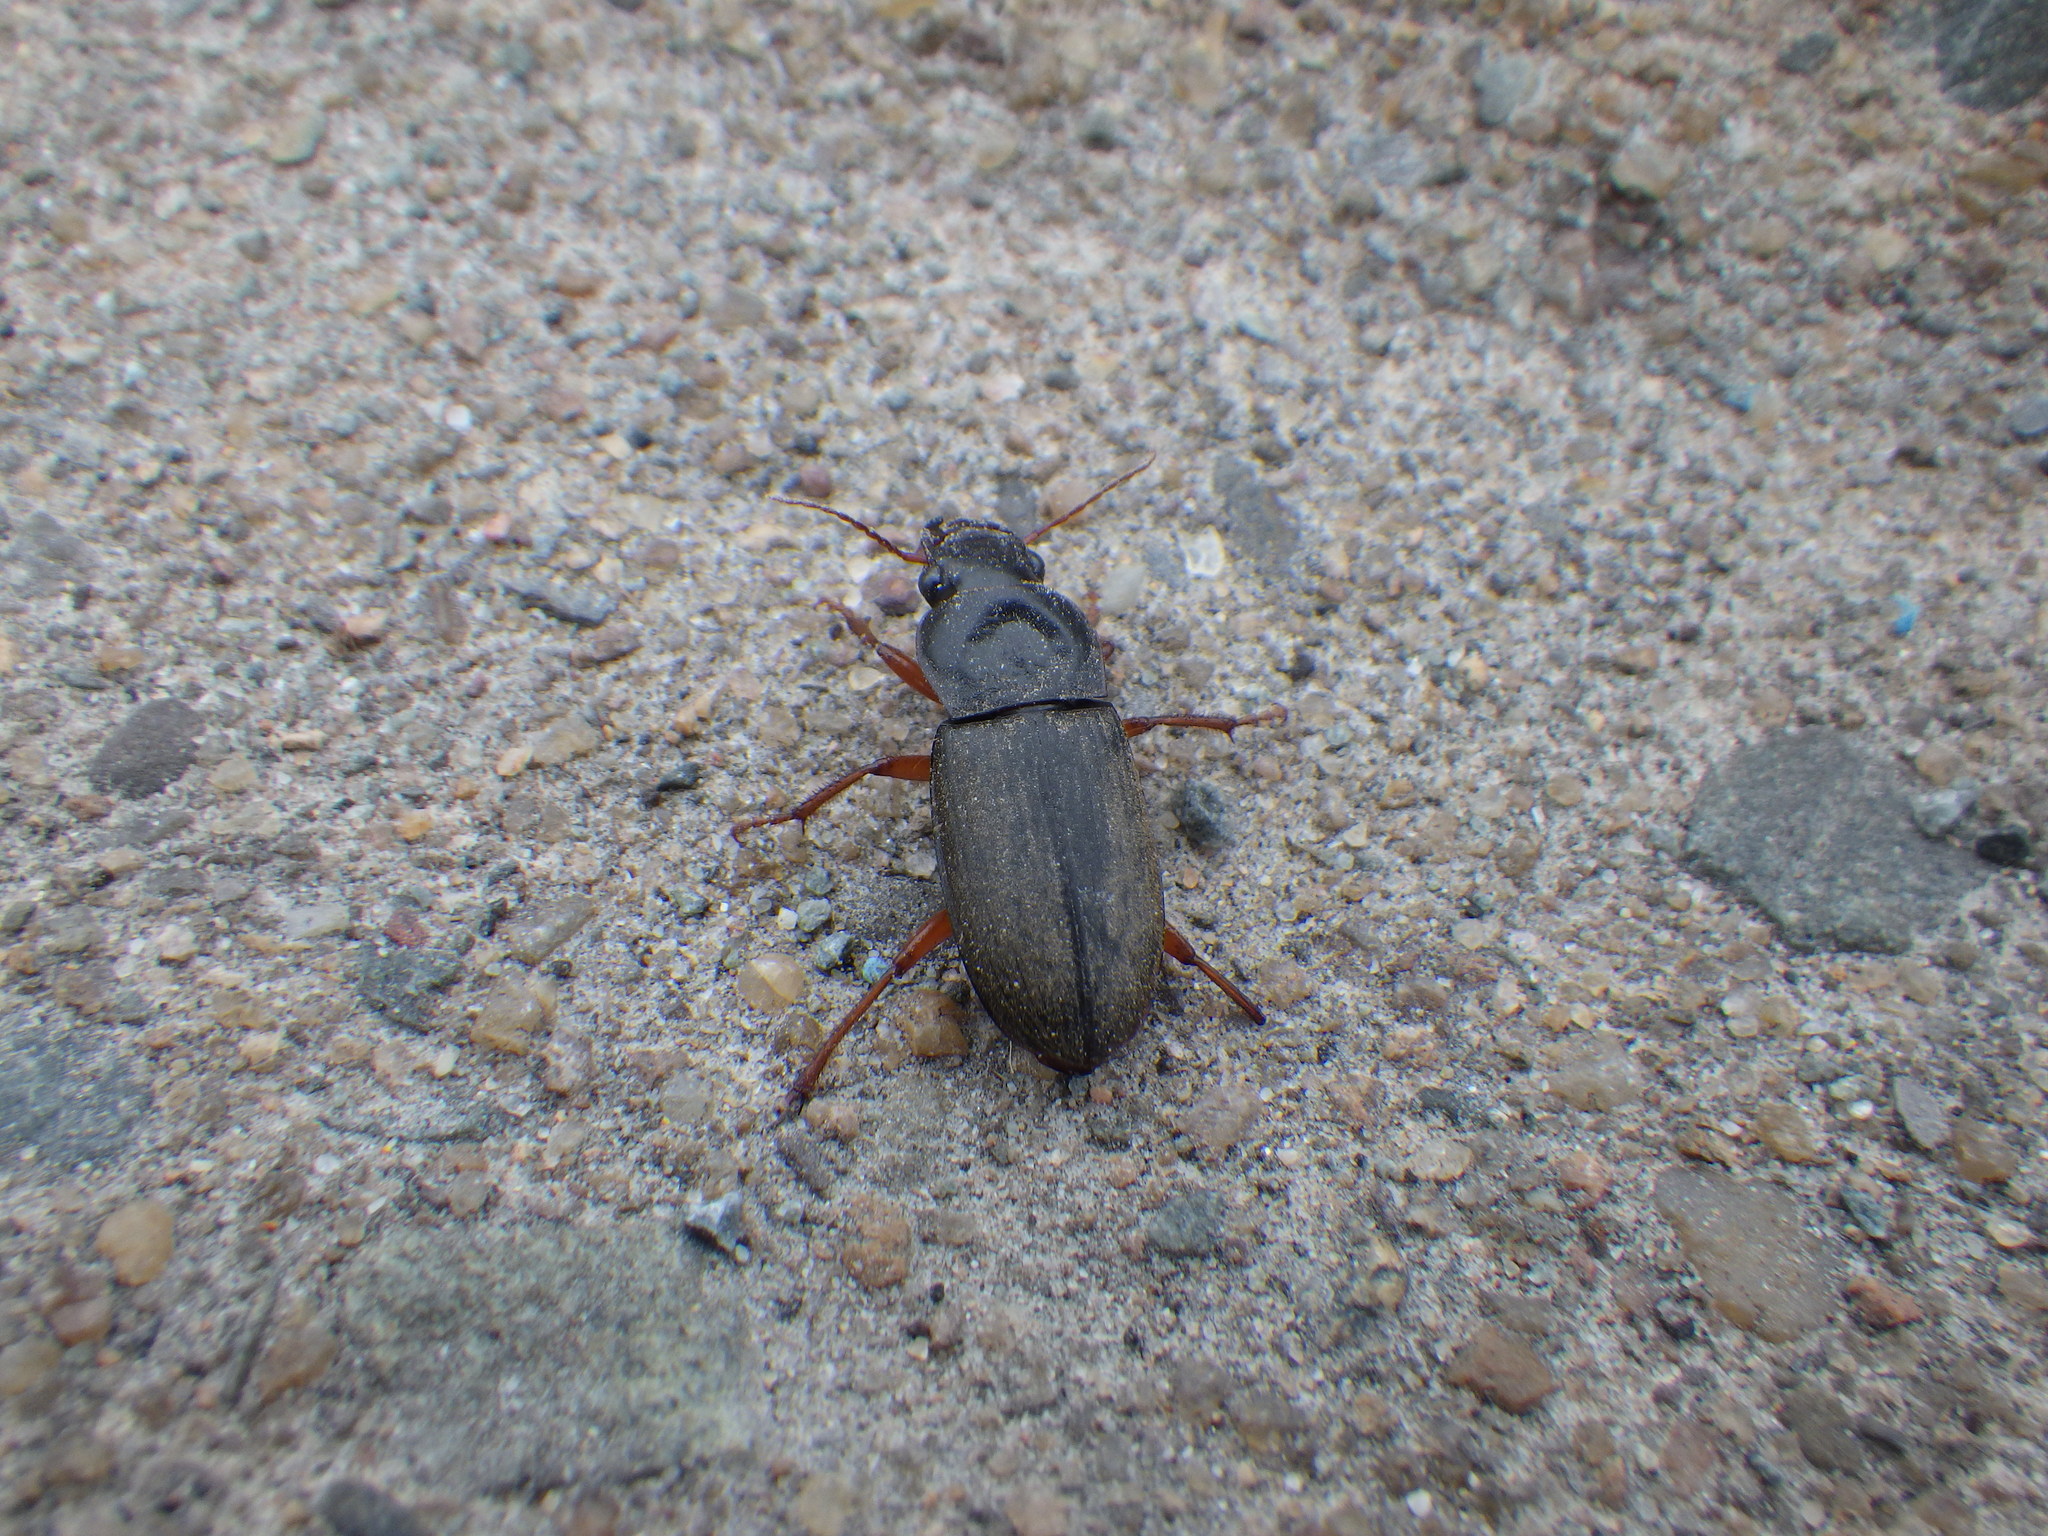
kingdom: Animalia
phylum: Arthropoda
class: Insecta
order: Coleoptera
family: Carabidae
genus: Harpalus
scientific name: Harpalus rufipes
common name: Strawberry harp ground beetle
